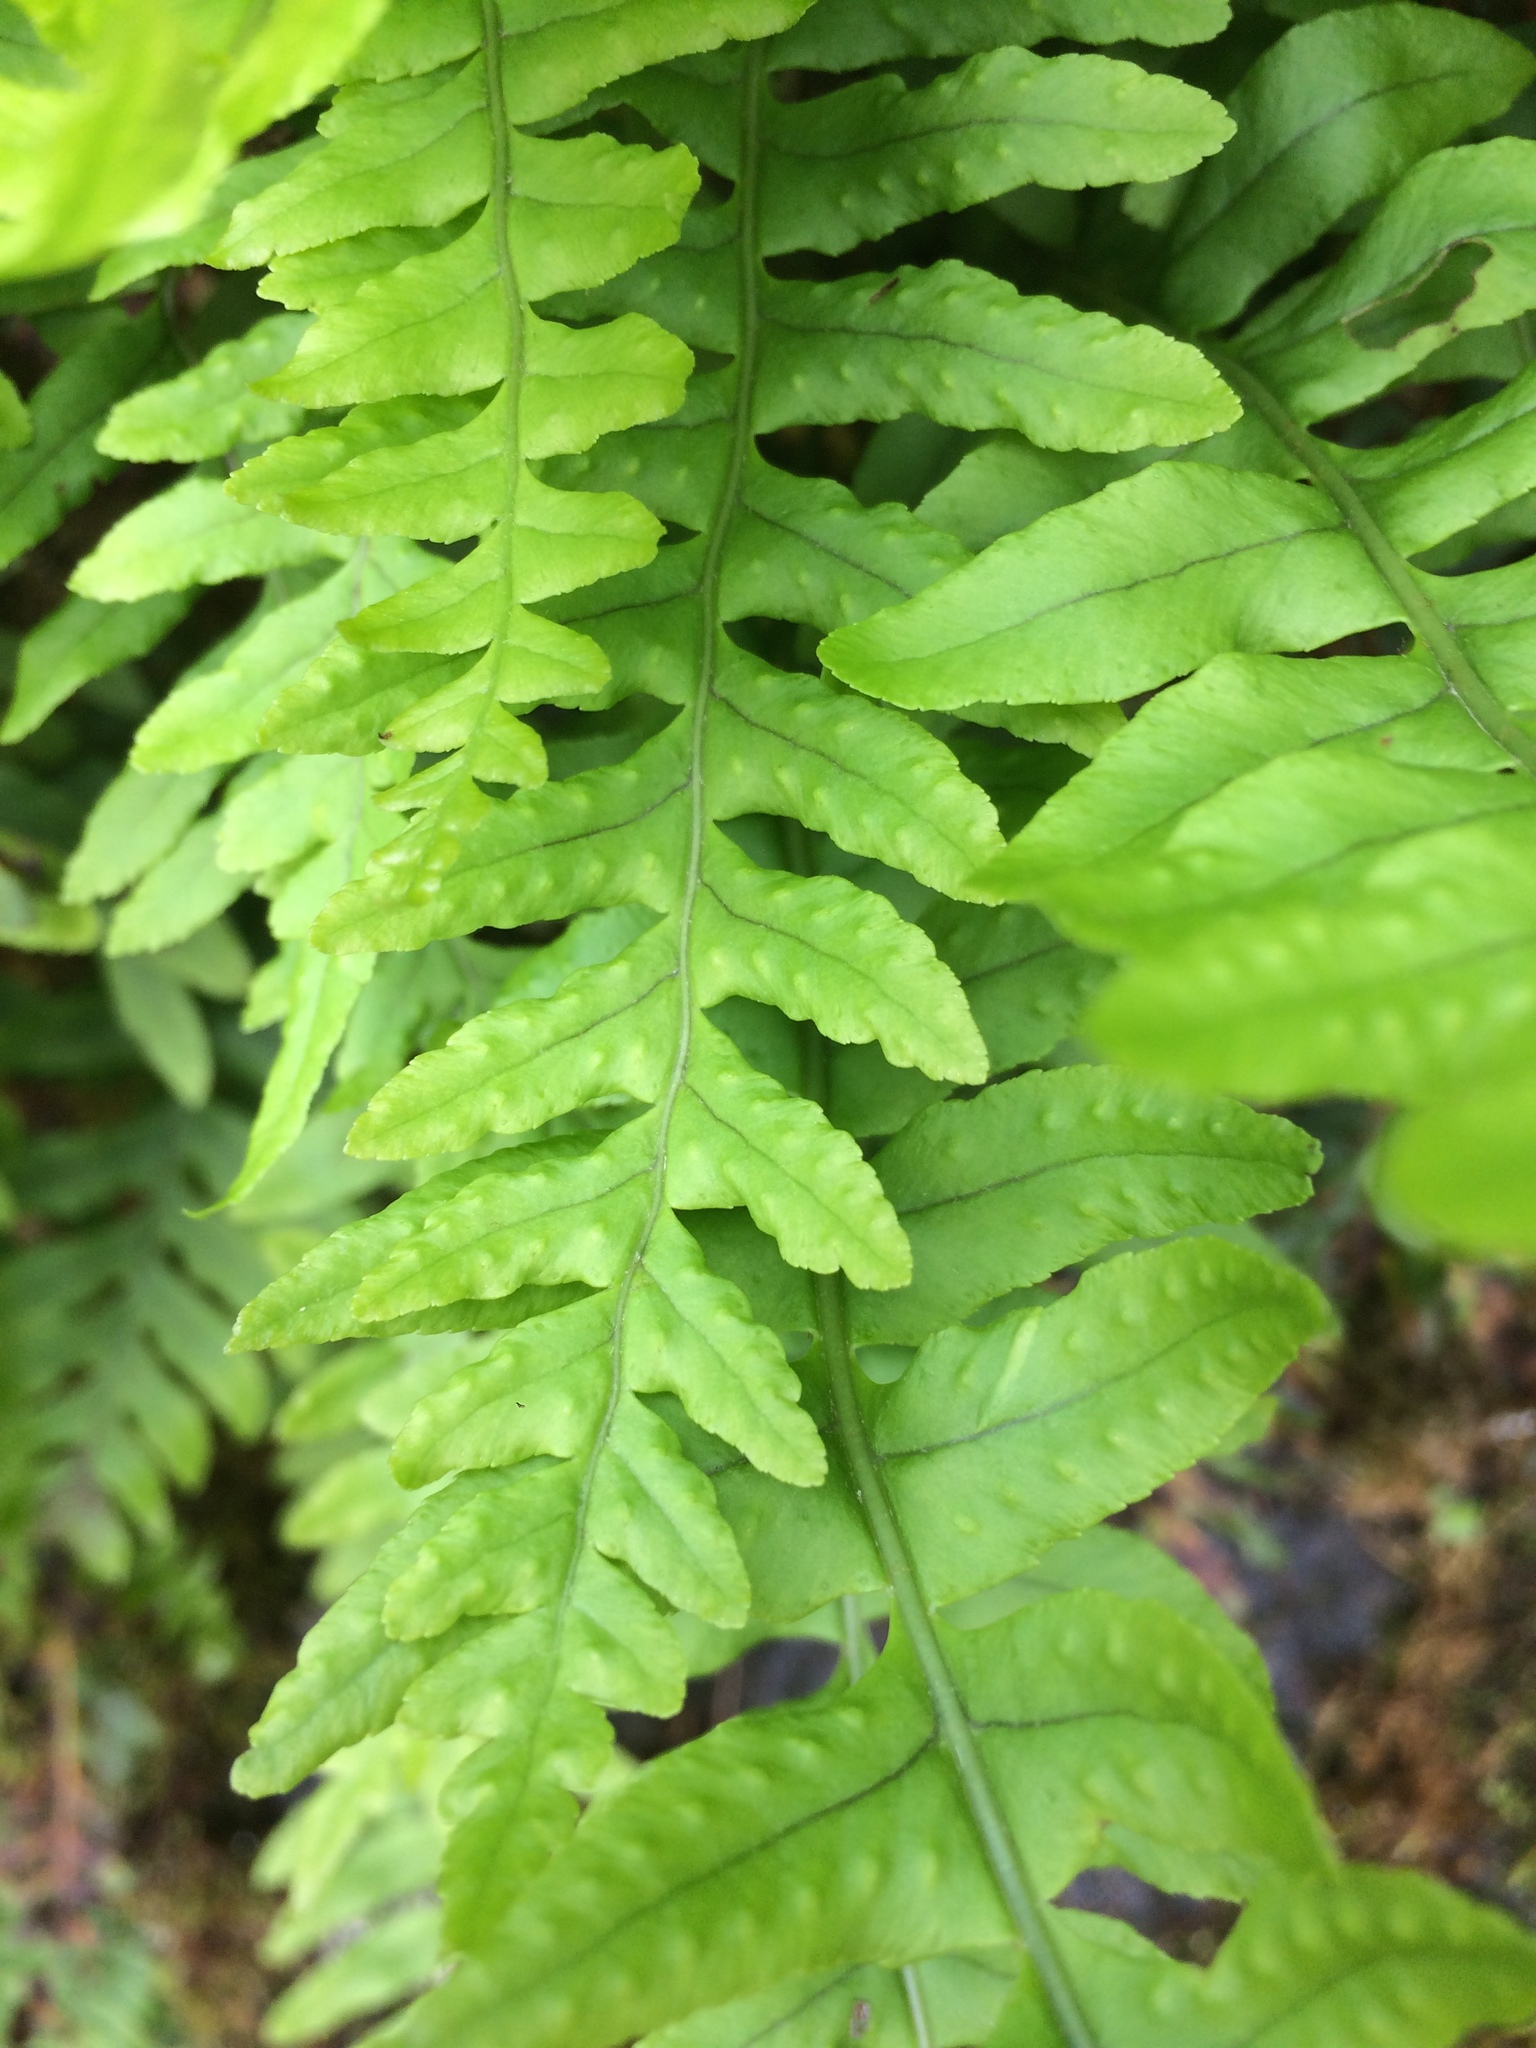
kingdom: Plantae
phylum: Tracheophyta
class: Polypodiopsida
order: Polypodiales
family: Polypodiaceae
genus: Polypodium
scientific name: Polypodium vulgare
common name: Common polypody
